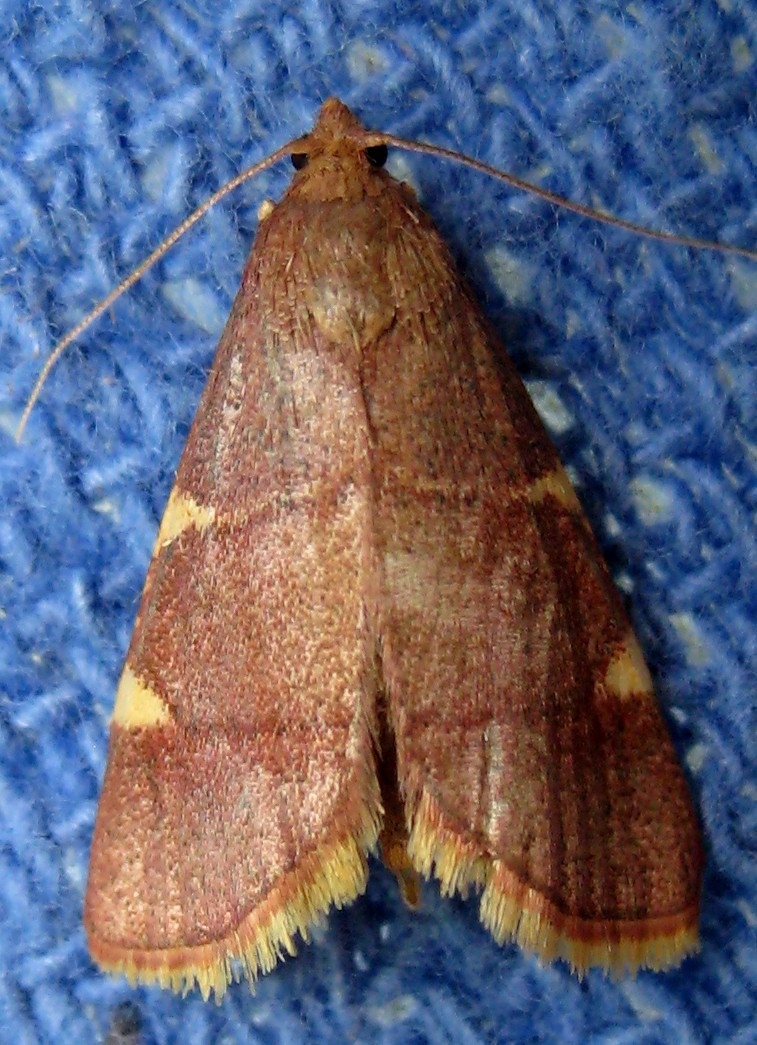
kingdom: Animalia
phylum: Arthropoda
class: Insecta
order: Lepidoptera
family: Pyralidae
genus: Hypsopygia
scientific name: Hypsopygia olinalis
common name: Yellow-fringed dolichomia moth
